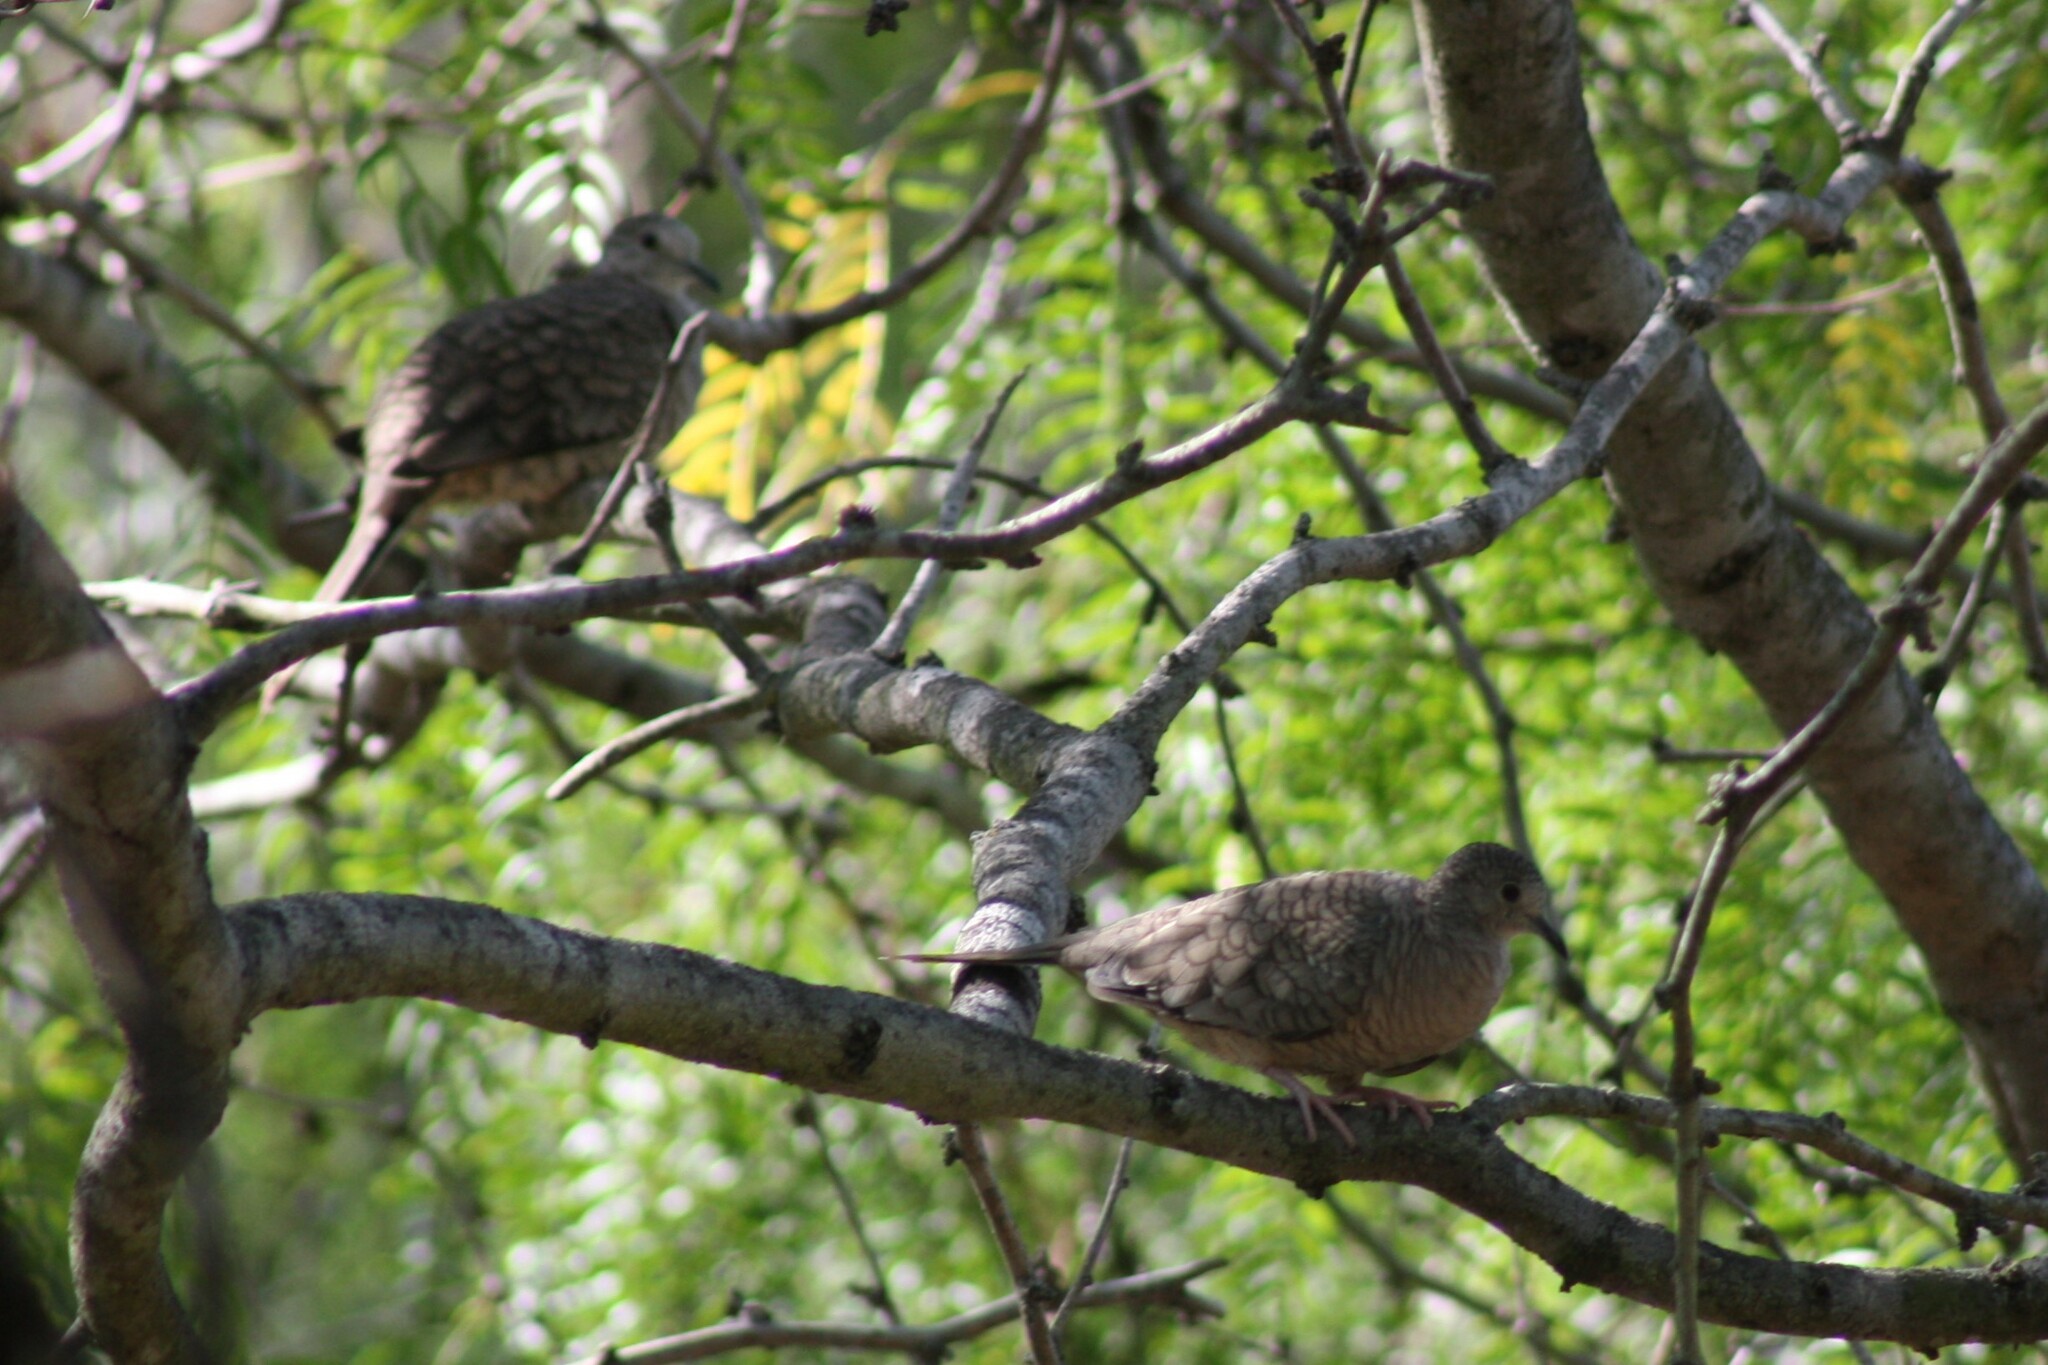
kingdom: Animalia
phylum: Chordata
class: Aves
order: Columbiformes
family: Columbidae
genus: Columbina
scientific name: Columbina inca
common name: Inca dove
